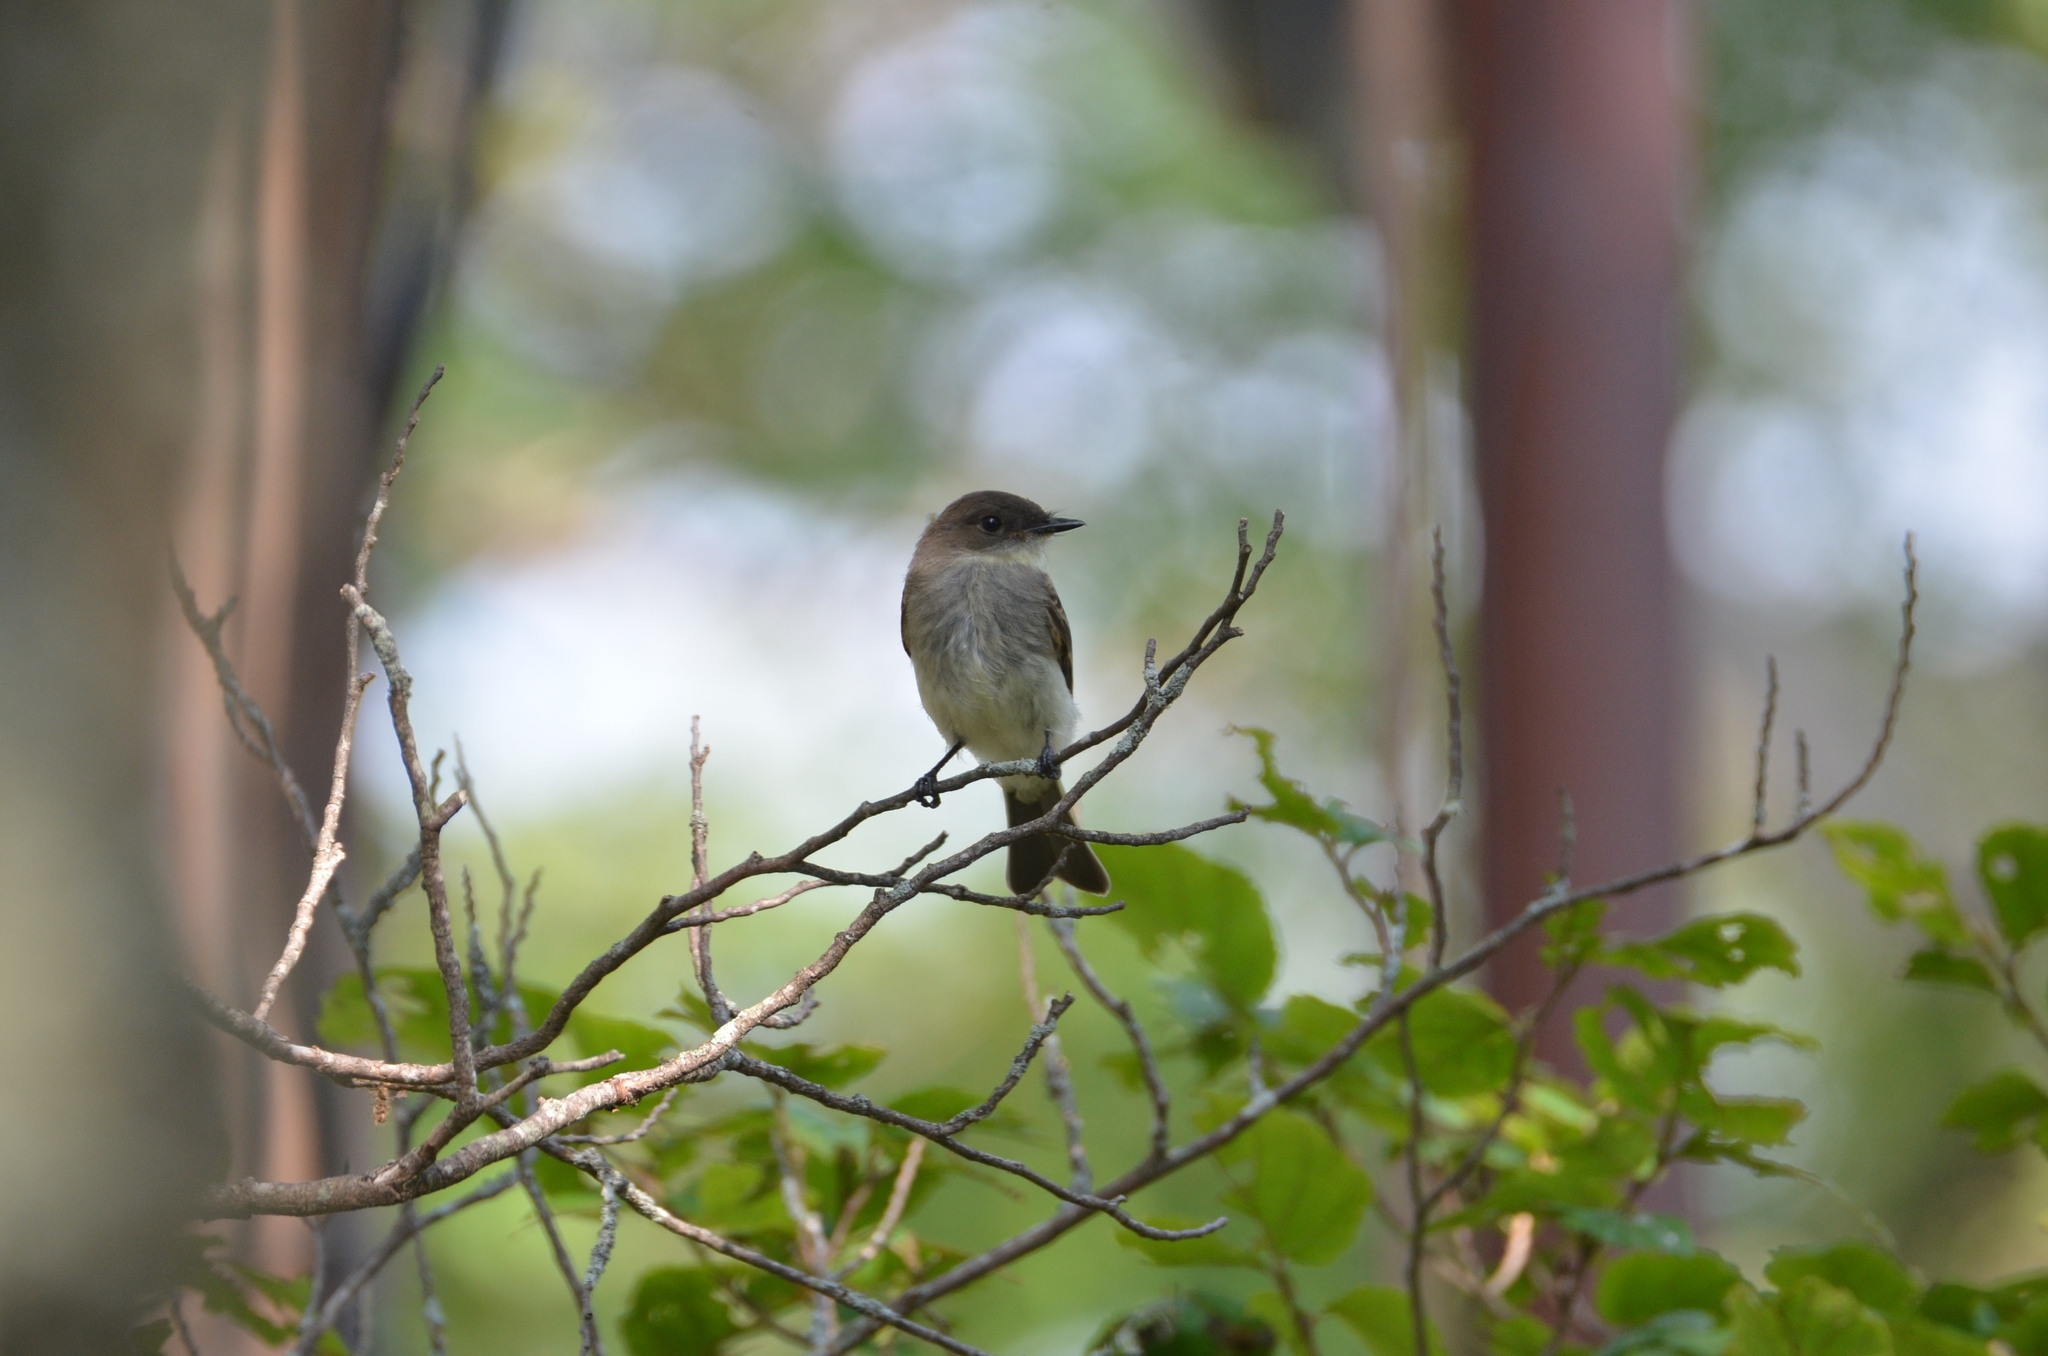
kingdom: Animalia
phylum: Chordata
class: Aves
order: Passeriformes
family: Tyrannidae
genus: Sayornis
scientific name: Sayornis phoebe
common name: Eastern phoebe
